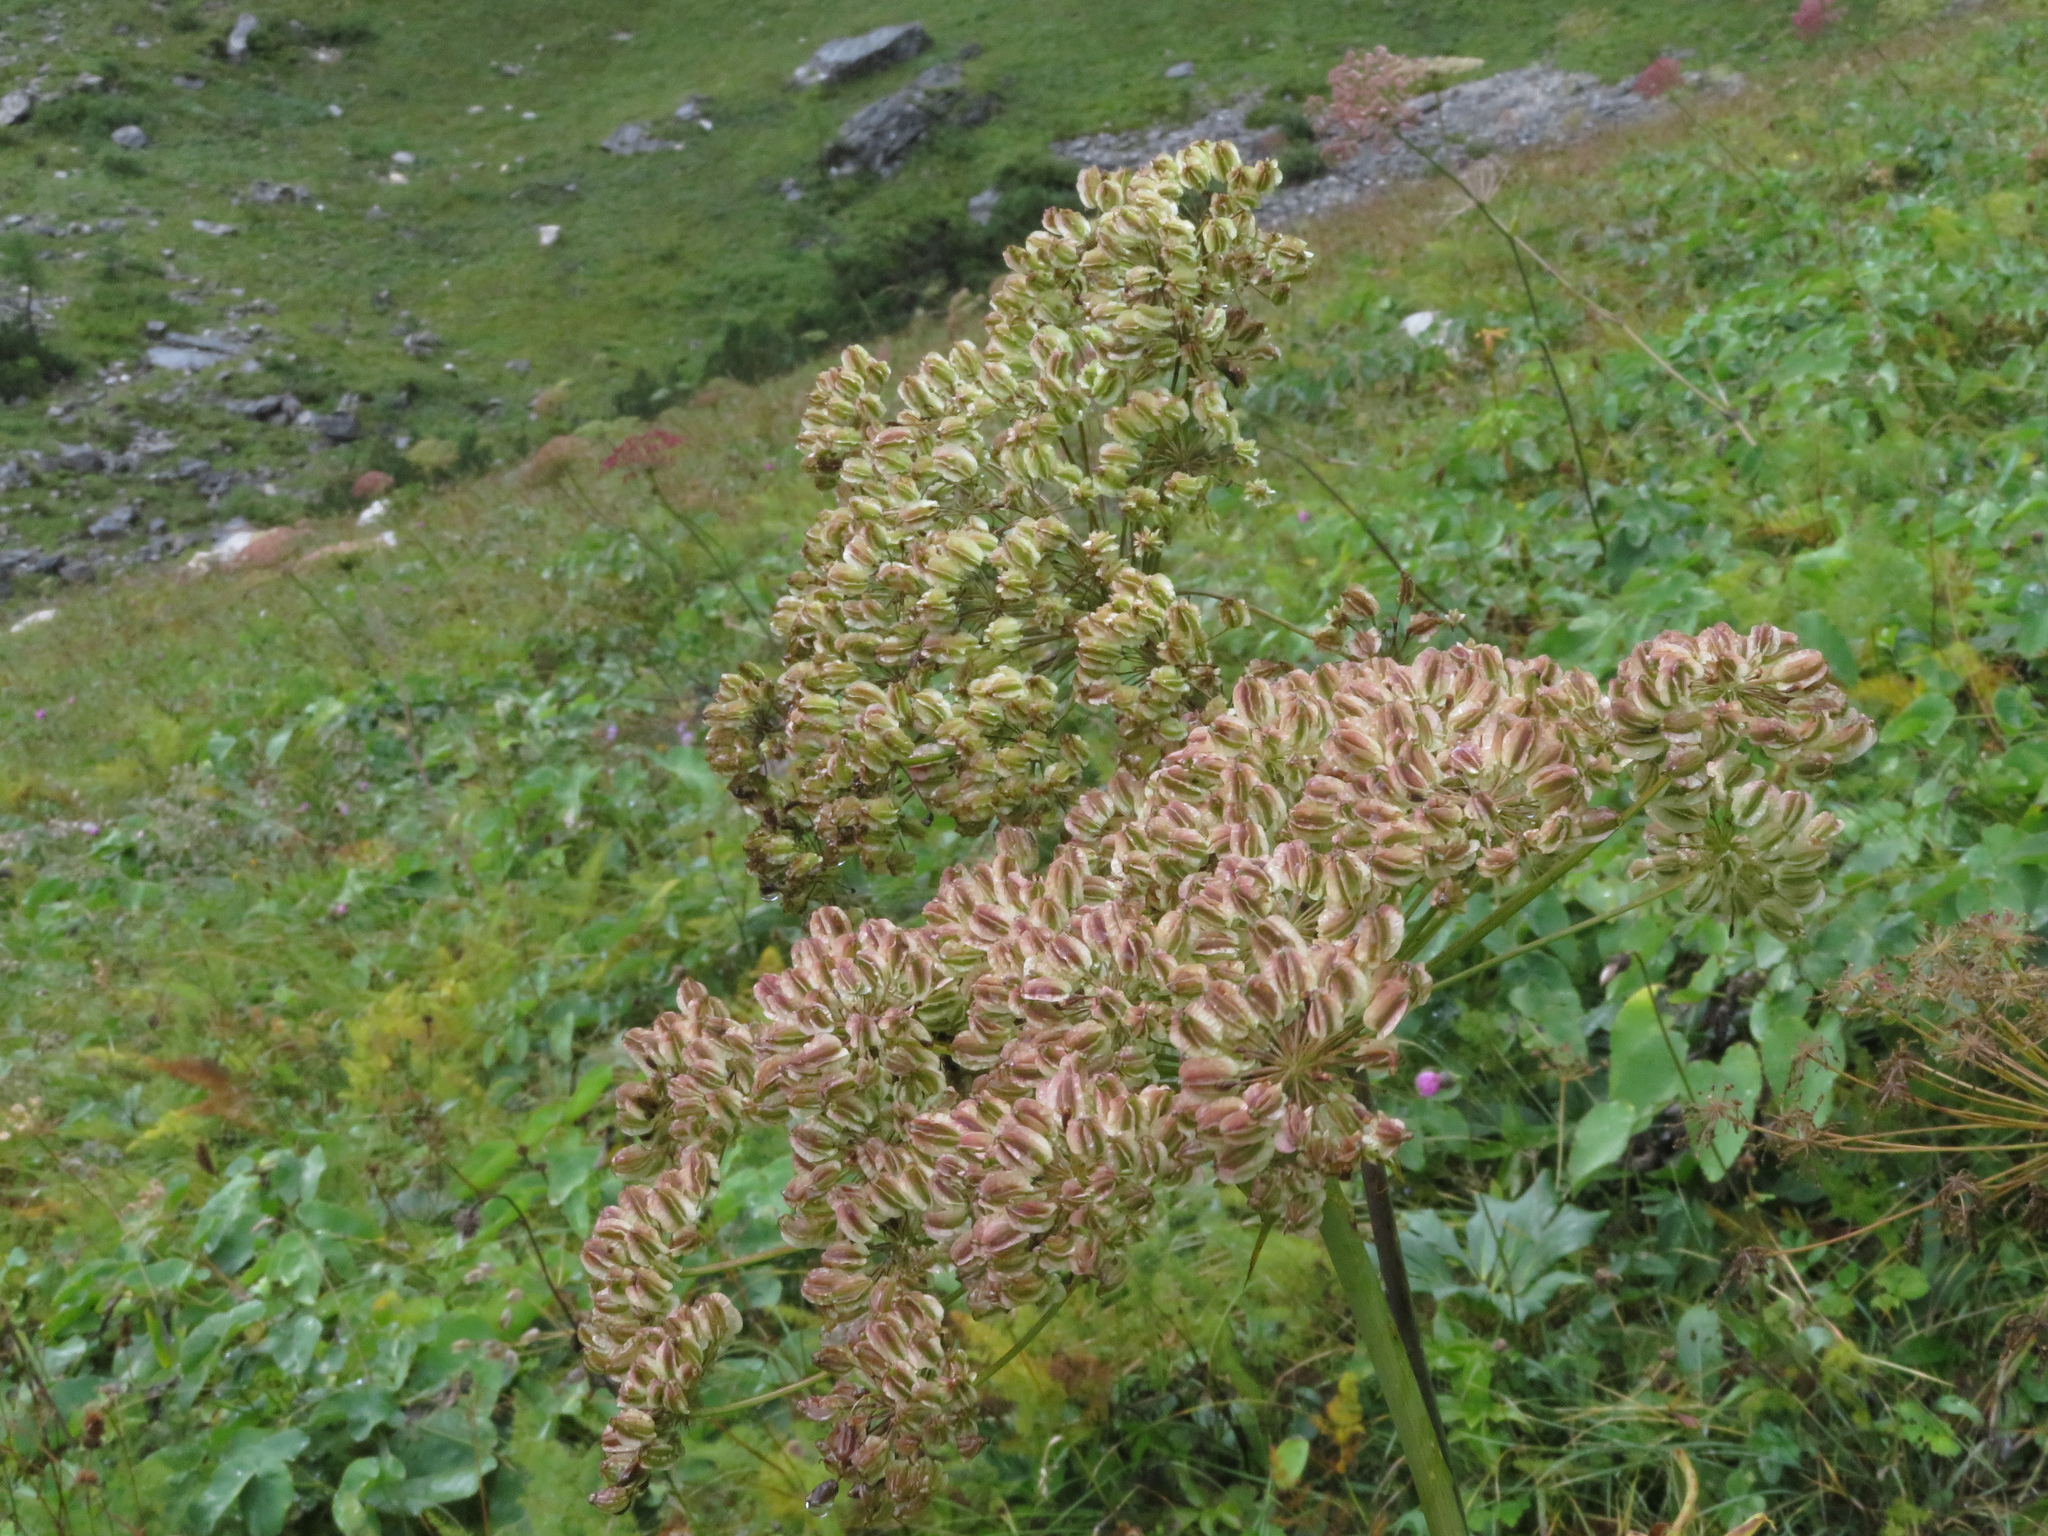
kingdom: Plantae
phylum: Tracheophyta
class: Magnoliopsida
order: Apiales
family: Apiaceae
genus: Laserpitium
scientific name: Laserpitium latifolium
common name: Broadleaf sermountain
